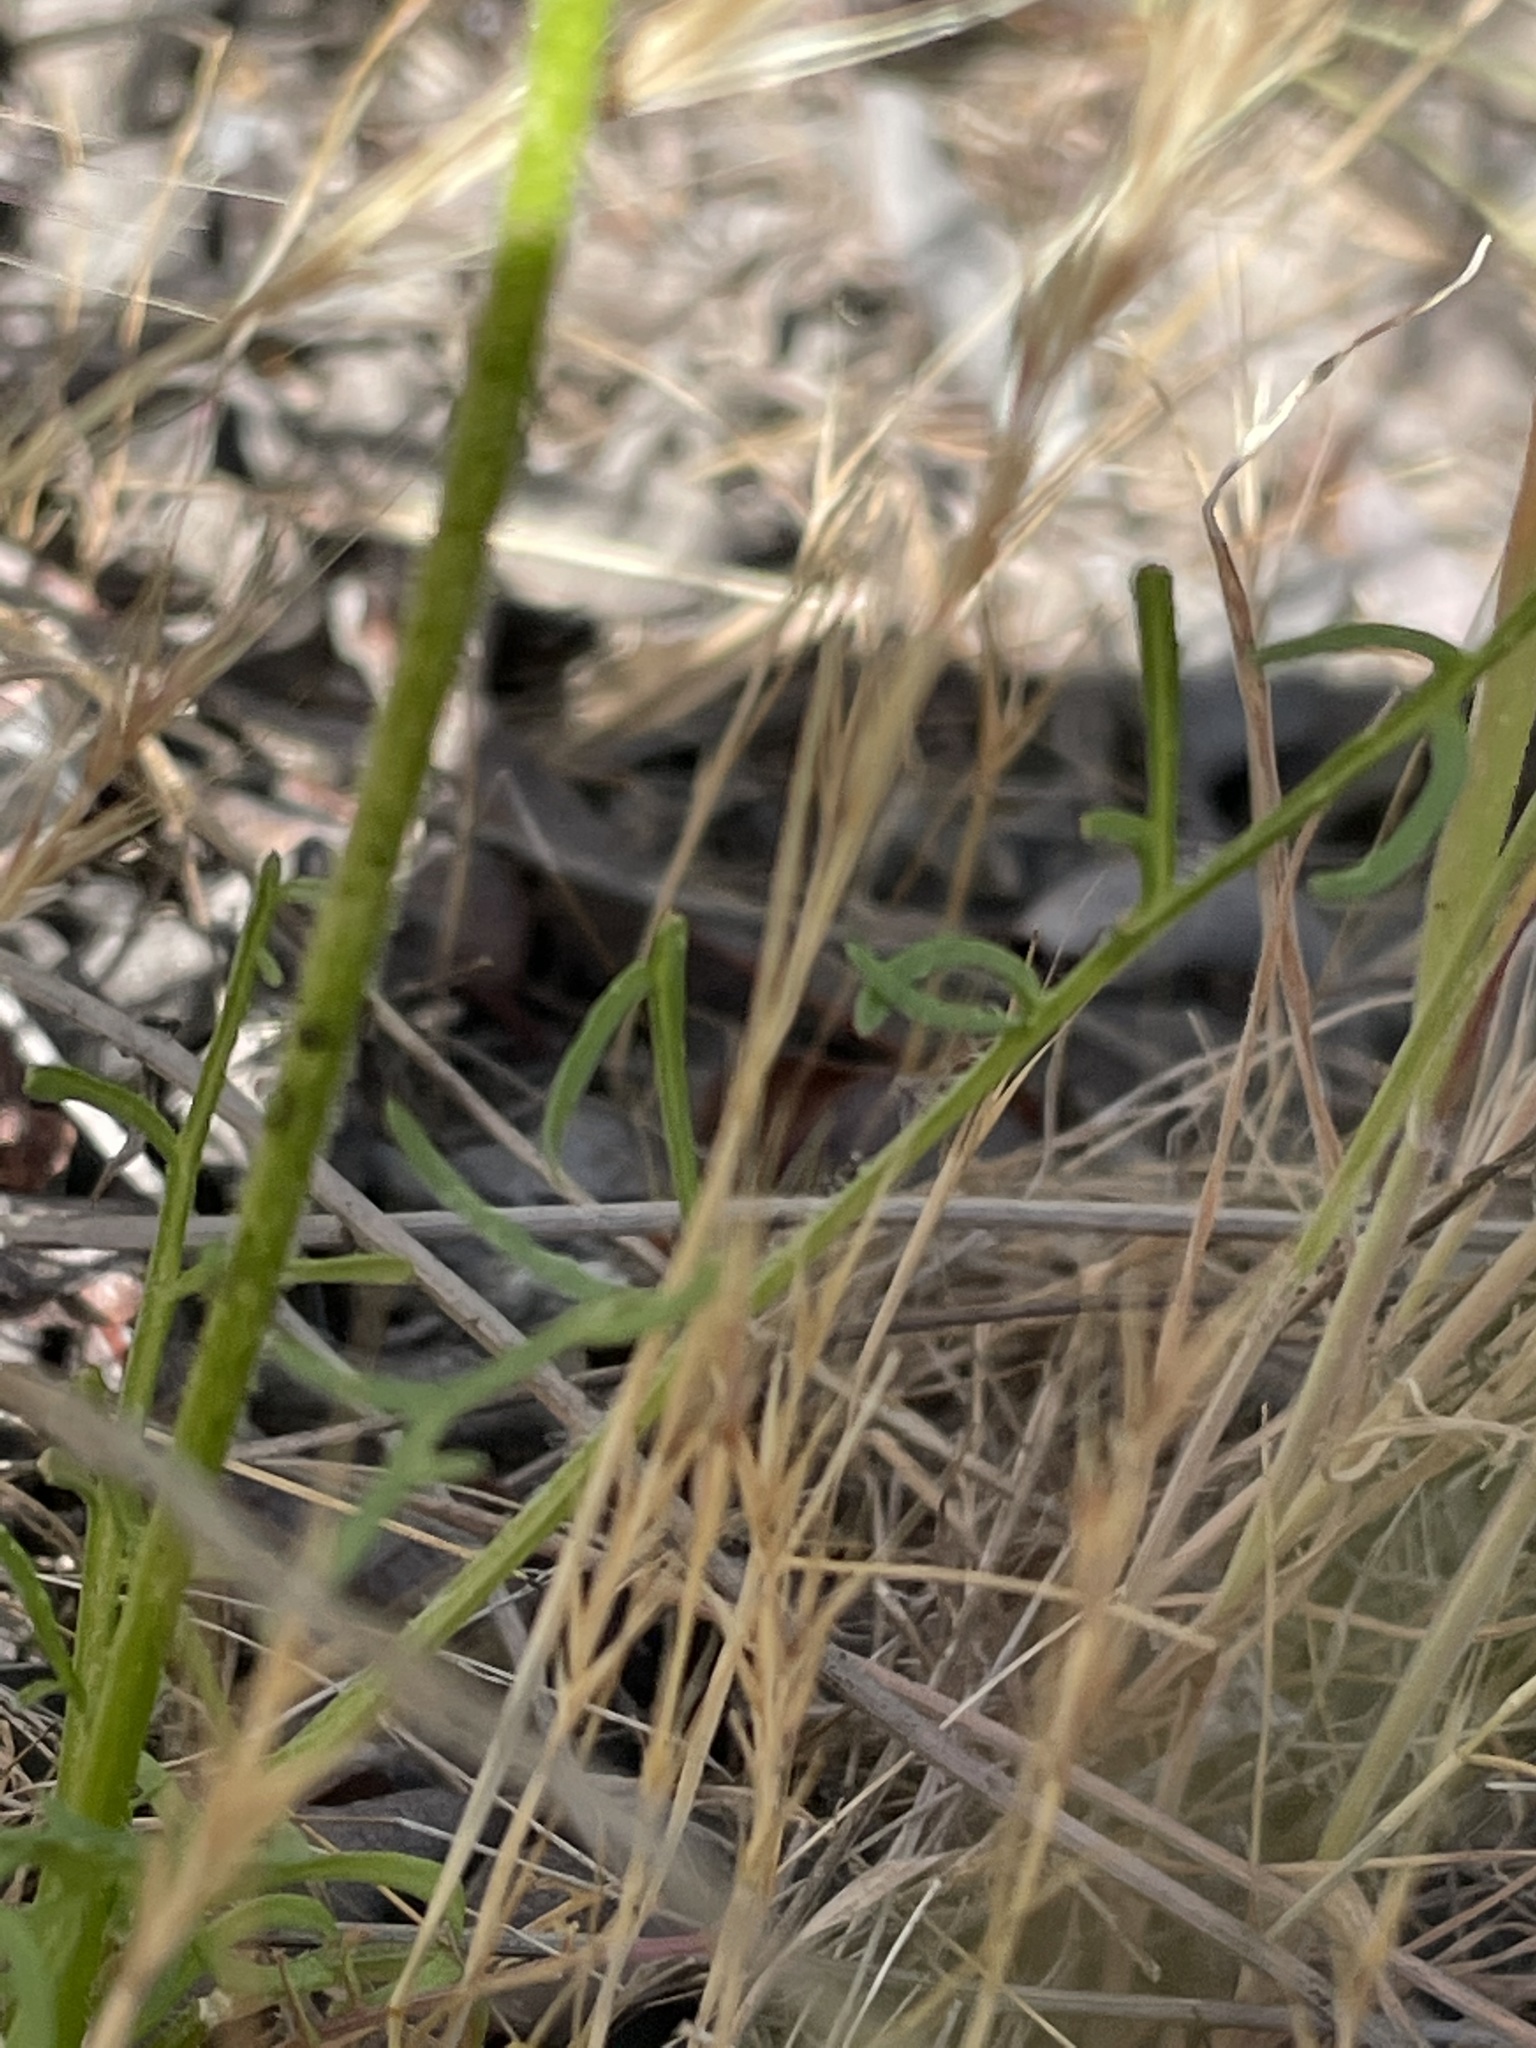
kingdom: Plantae
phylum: Tracheophyta
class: Magnoliopsida
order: Ericales
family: Polemoniaceae
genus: Gilia
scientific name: Gilia capitata
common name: Bluehead gilia
